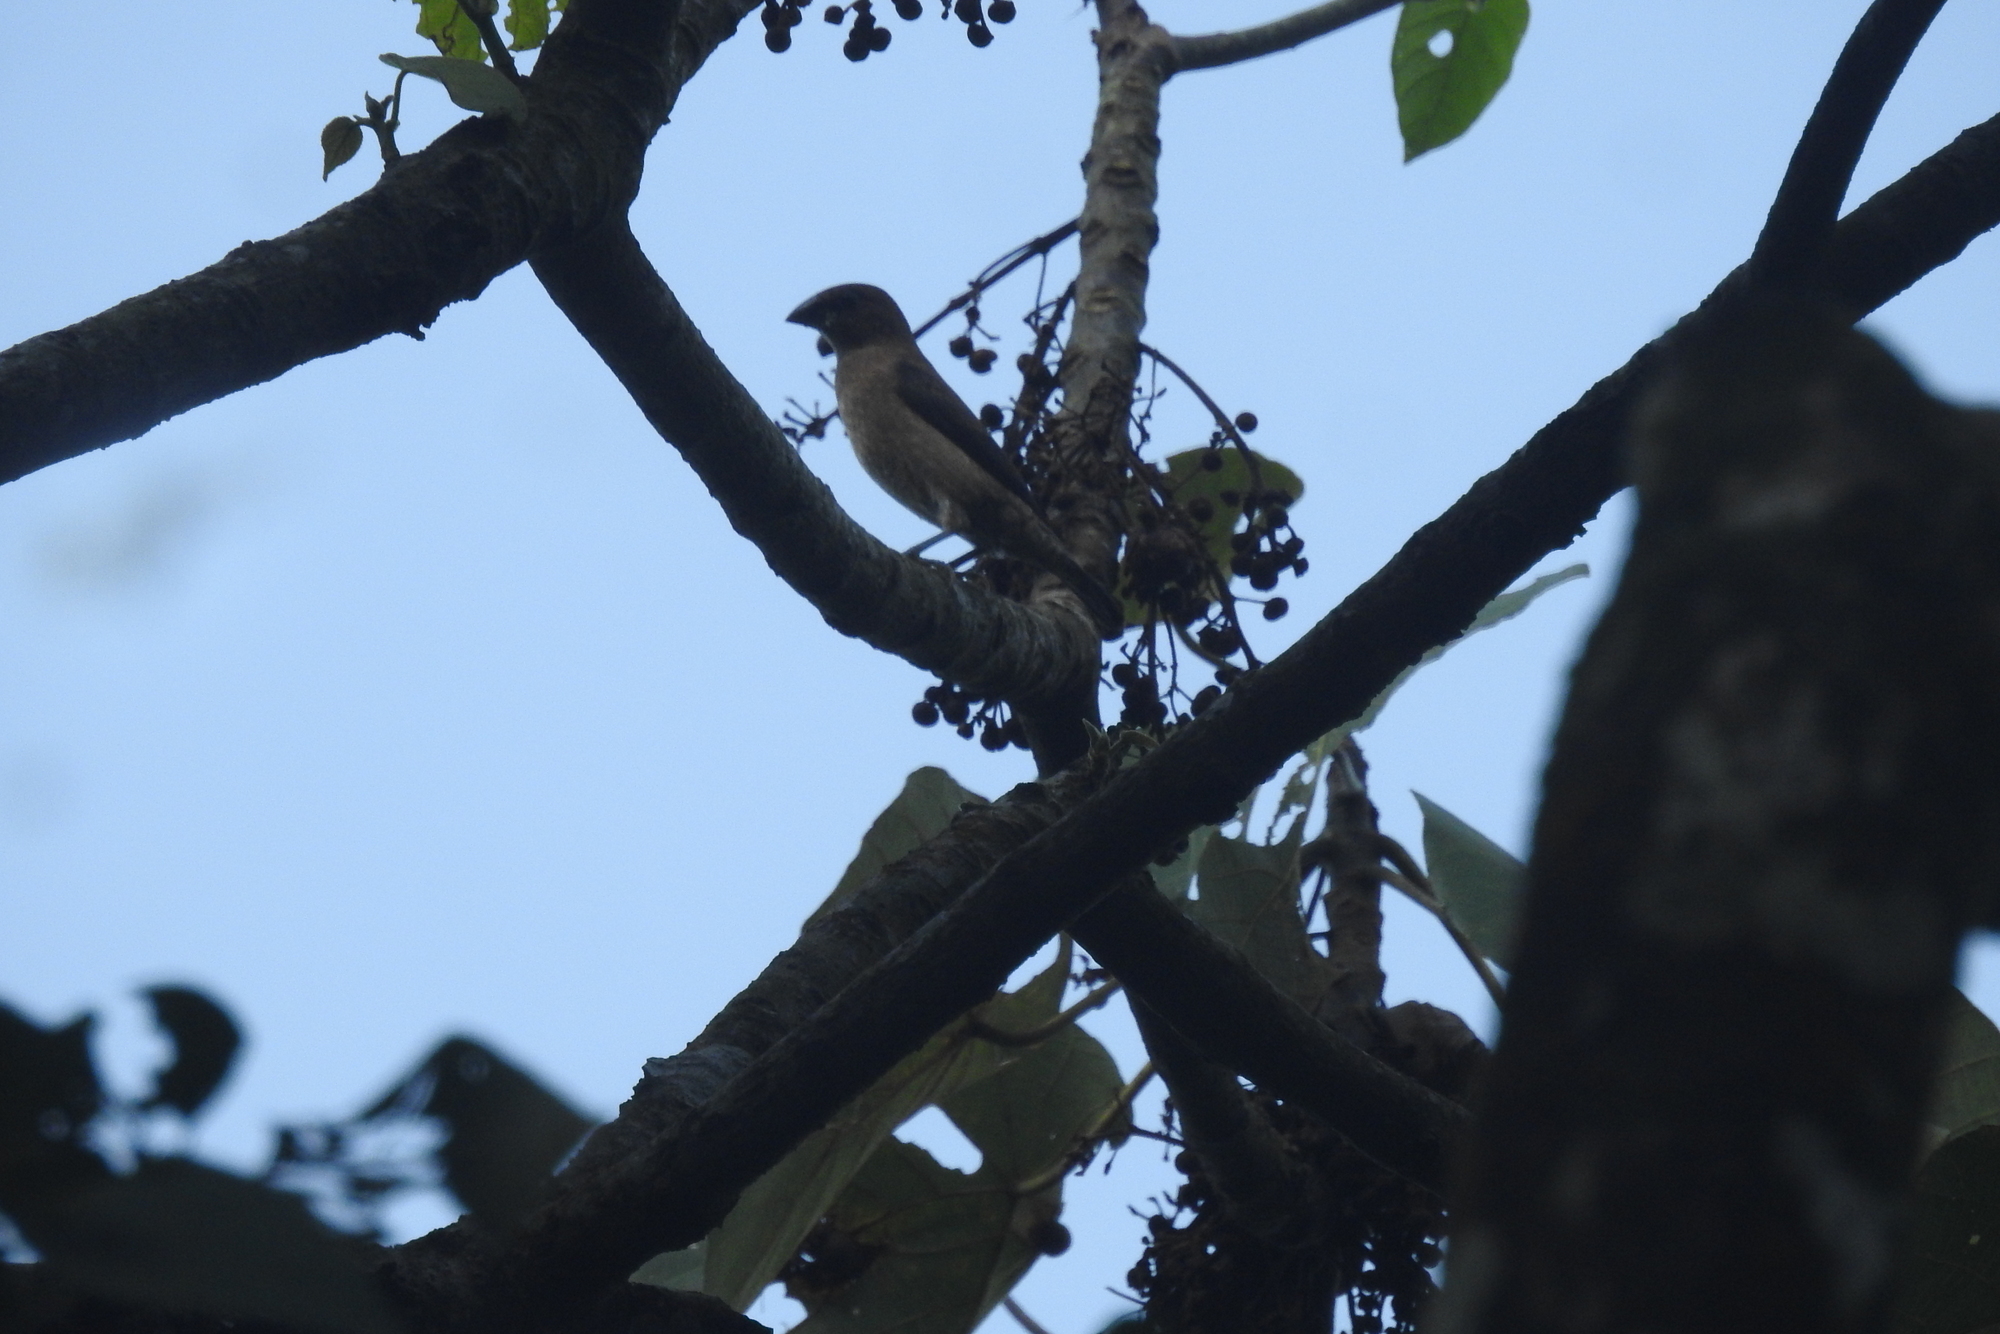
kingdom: Animalia
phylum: Chordata
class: Aves
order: Passeriformes
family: Estrildidae
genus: Lonchura
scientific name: Lonchura striata
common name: White-rumped munia
